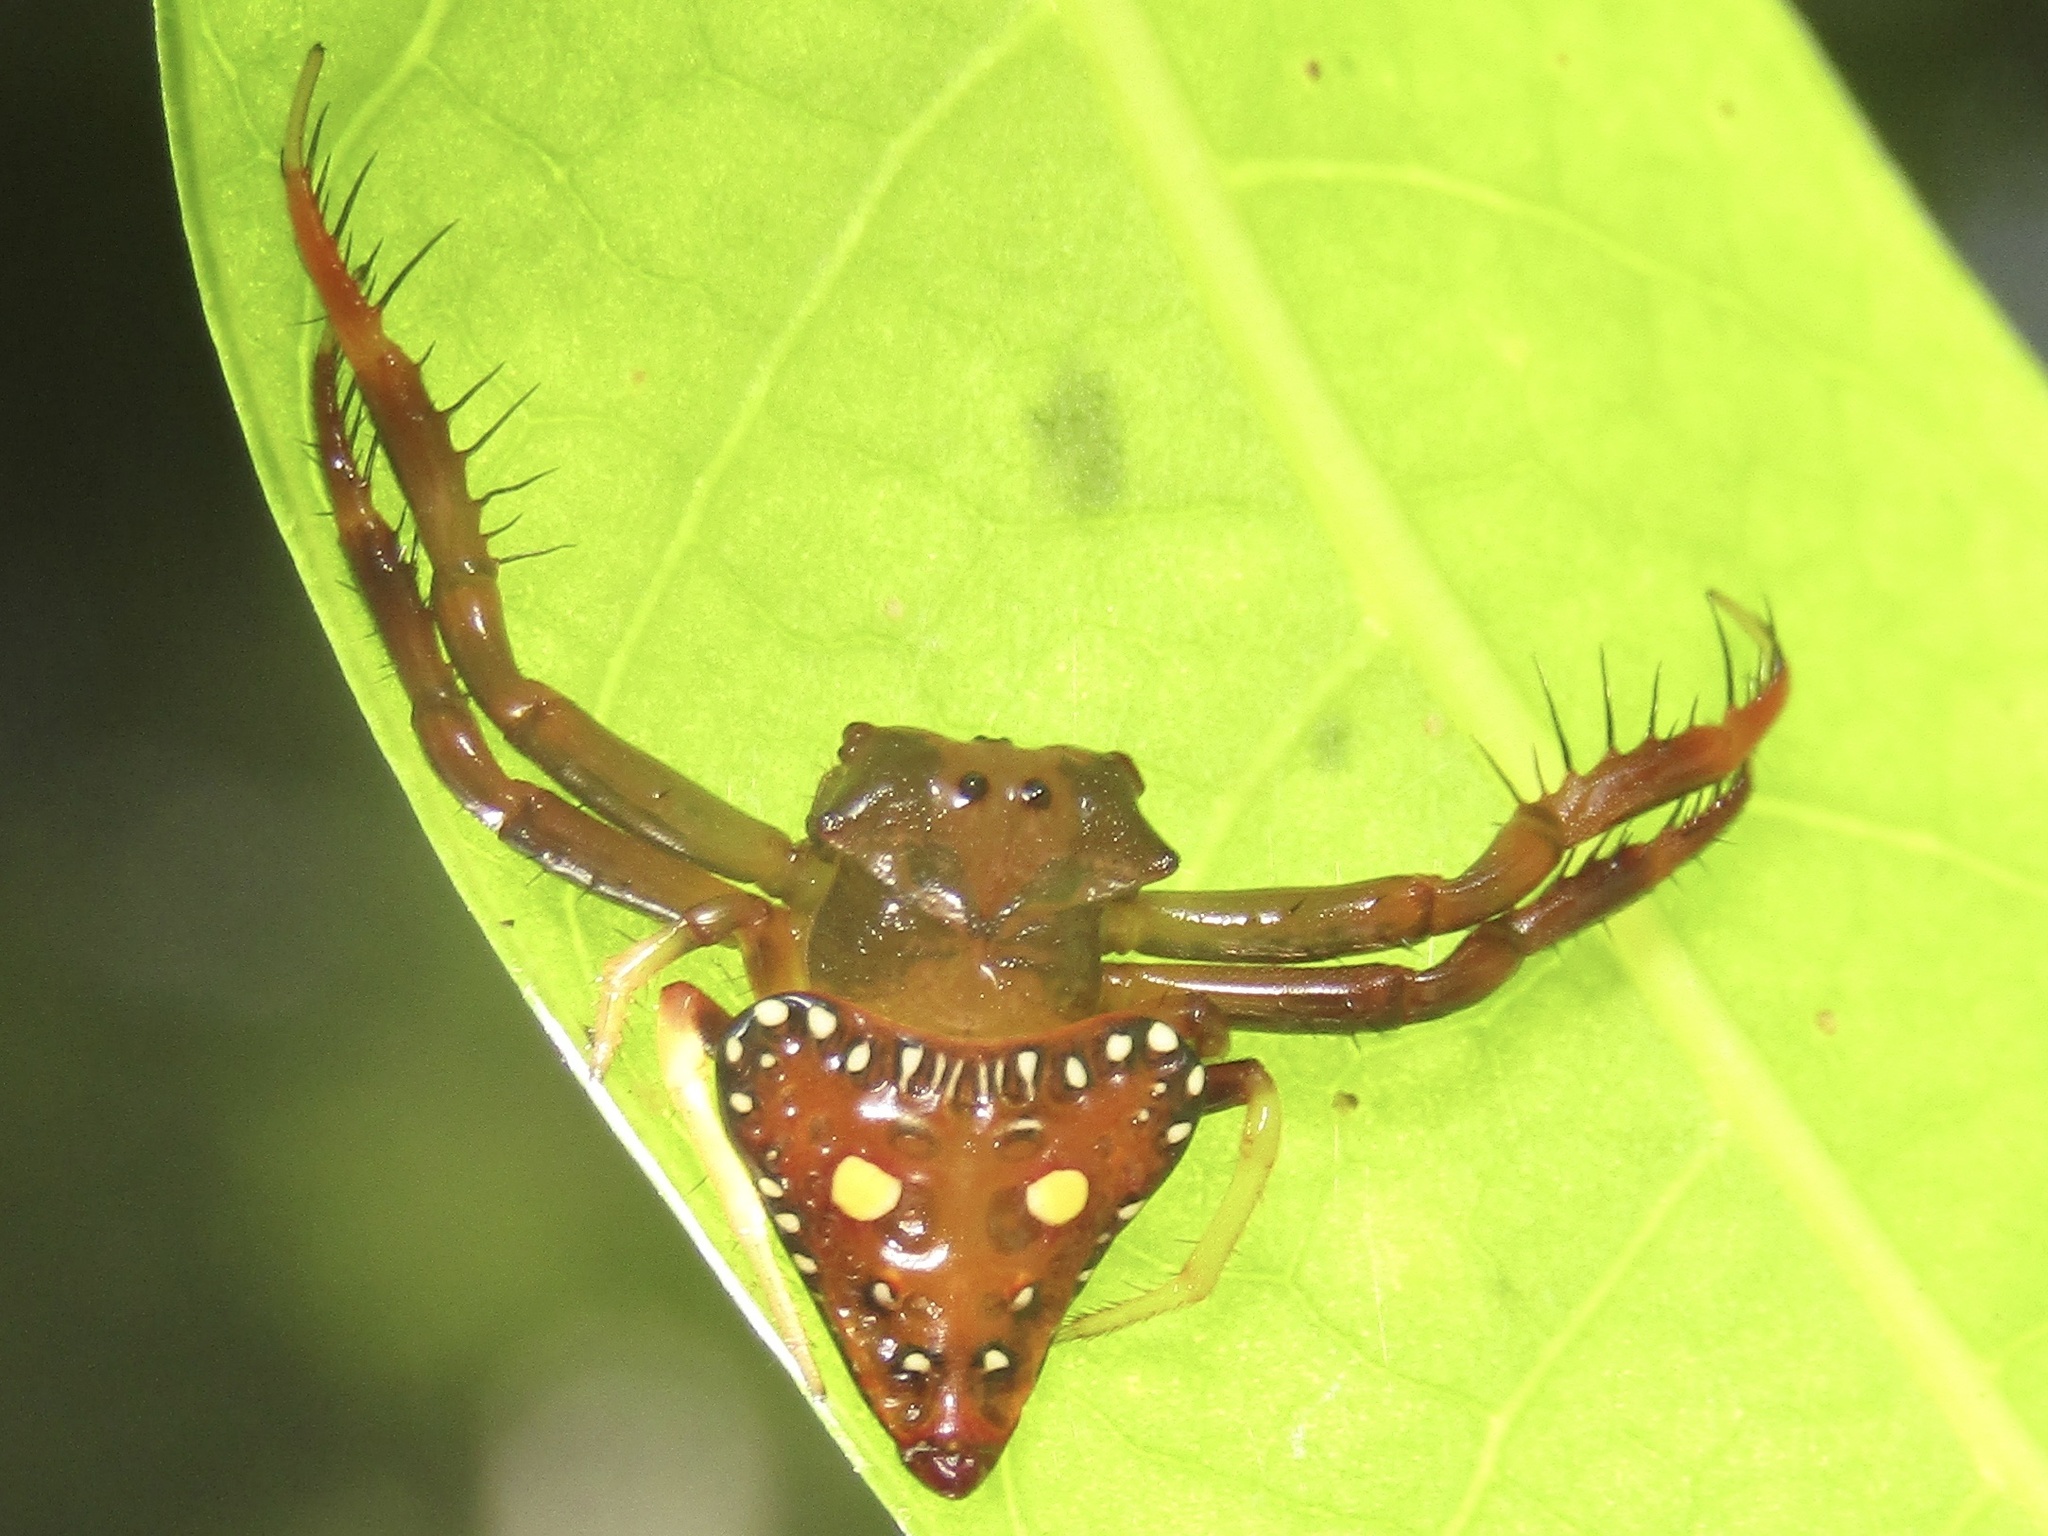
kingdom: Animalia
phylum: Arthropoda
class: Arachnida
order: Araneae
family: Arkyidae
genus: Arkys
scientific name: Arkys lancearius
